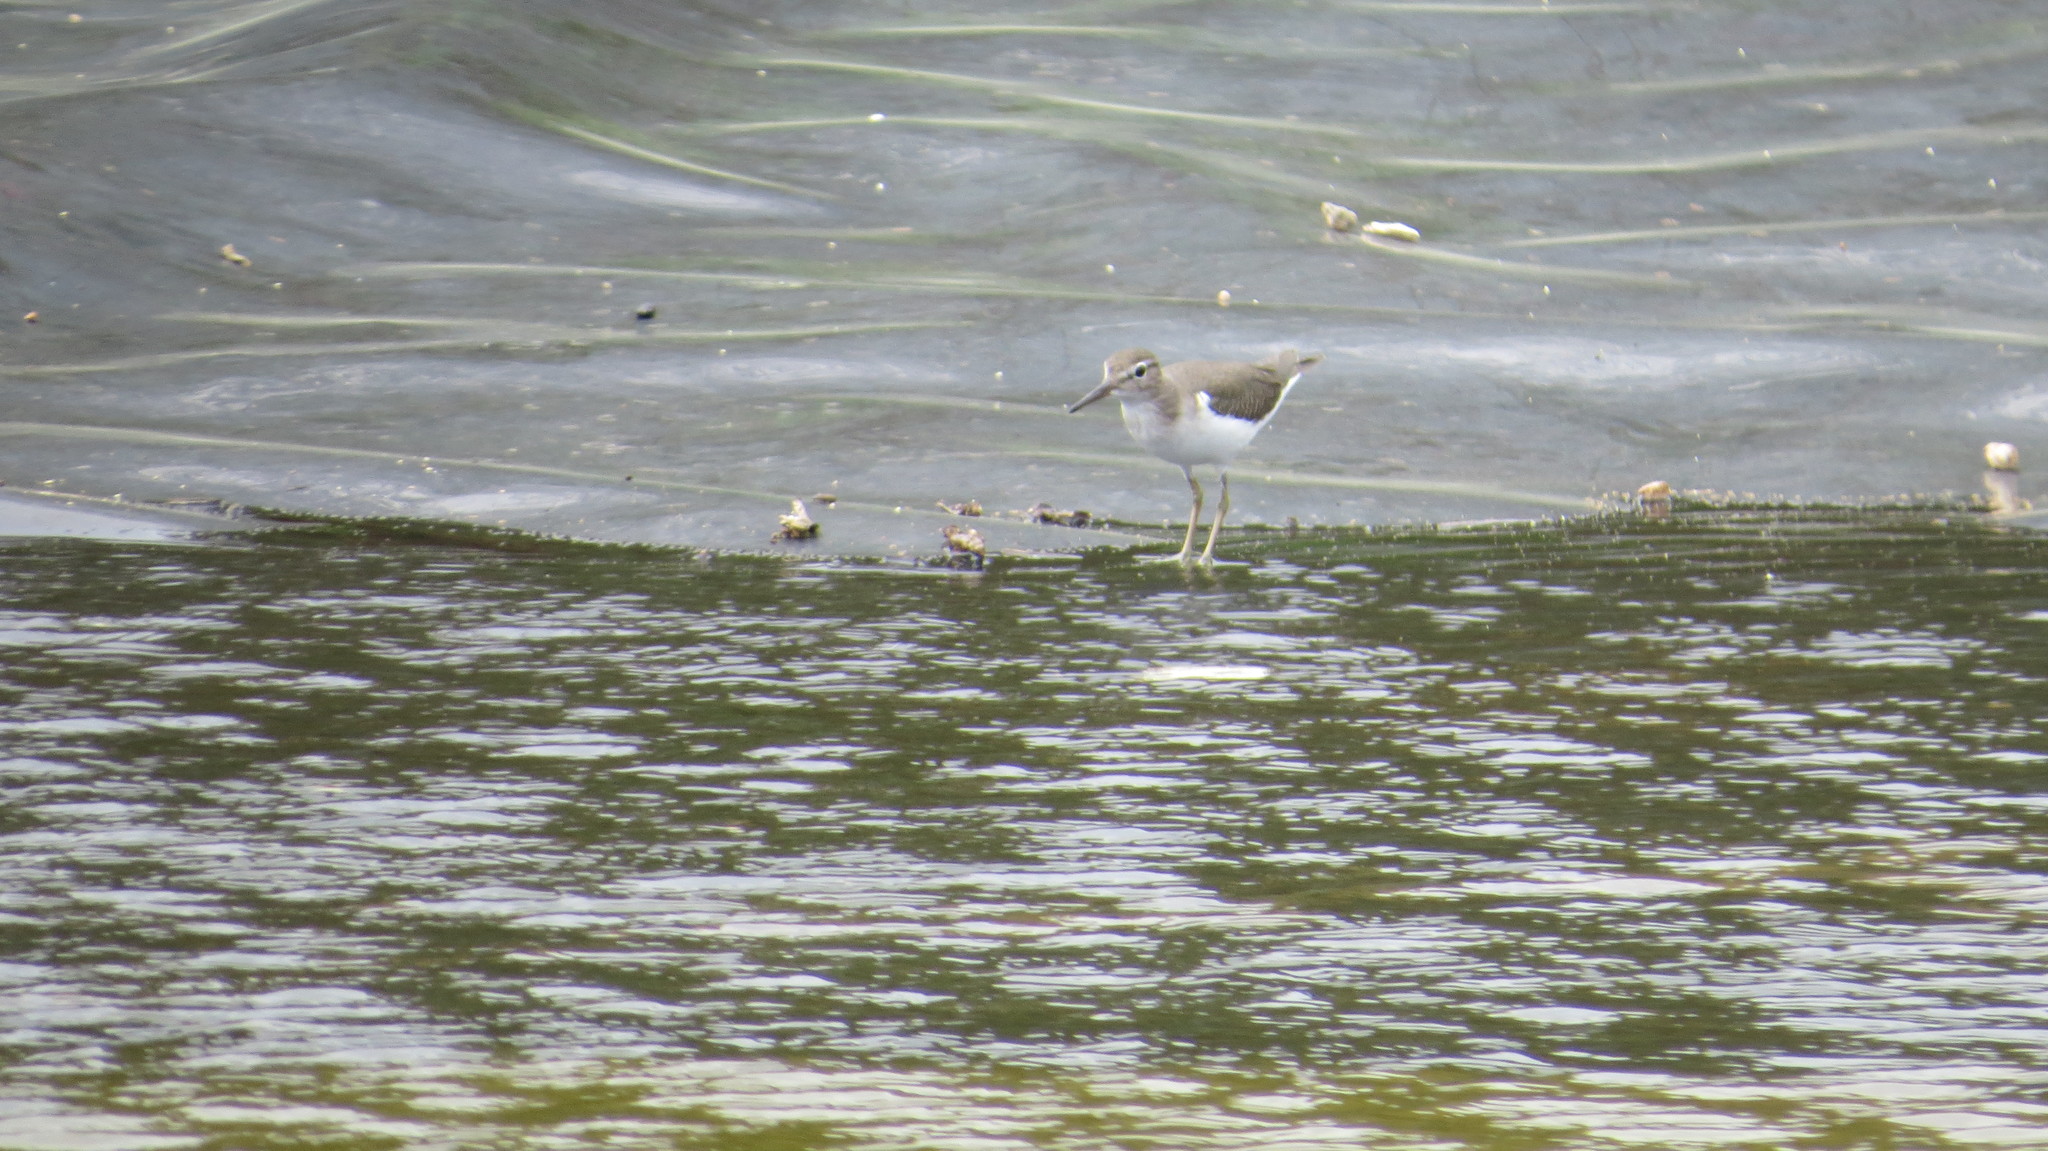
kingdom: Animalia
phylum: Chordata
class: Aves
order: Charadriiformes
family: Scolopacidae
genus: Tringa
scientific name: Tringa solitaria
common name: Solitary sandpiper
